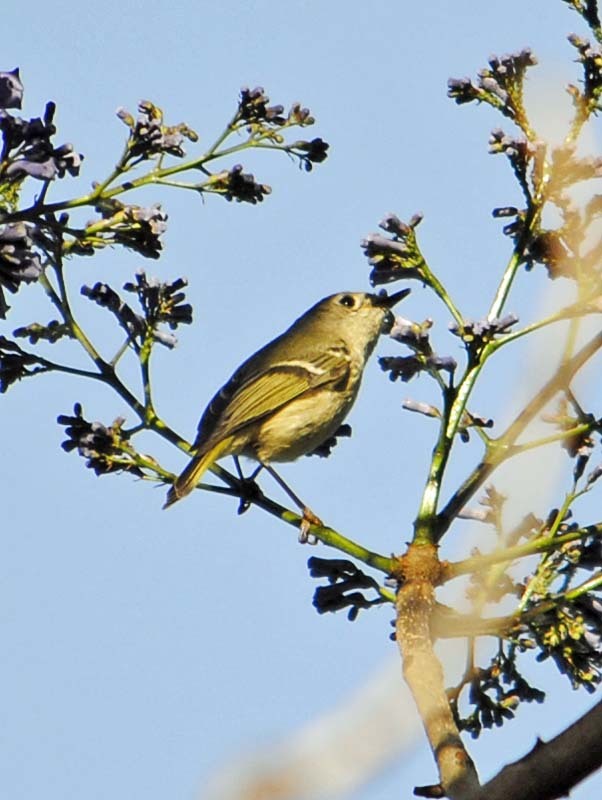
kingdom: Animalia
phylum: Chordata
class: Aves
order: Passeriformes
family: Regulidae
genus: Regulus
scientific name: Regulus calendula
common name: Ruby-crowned kinglet
